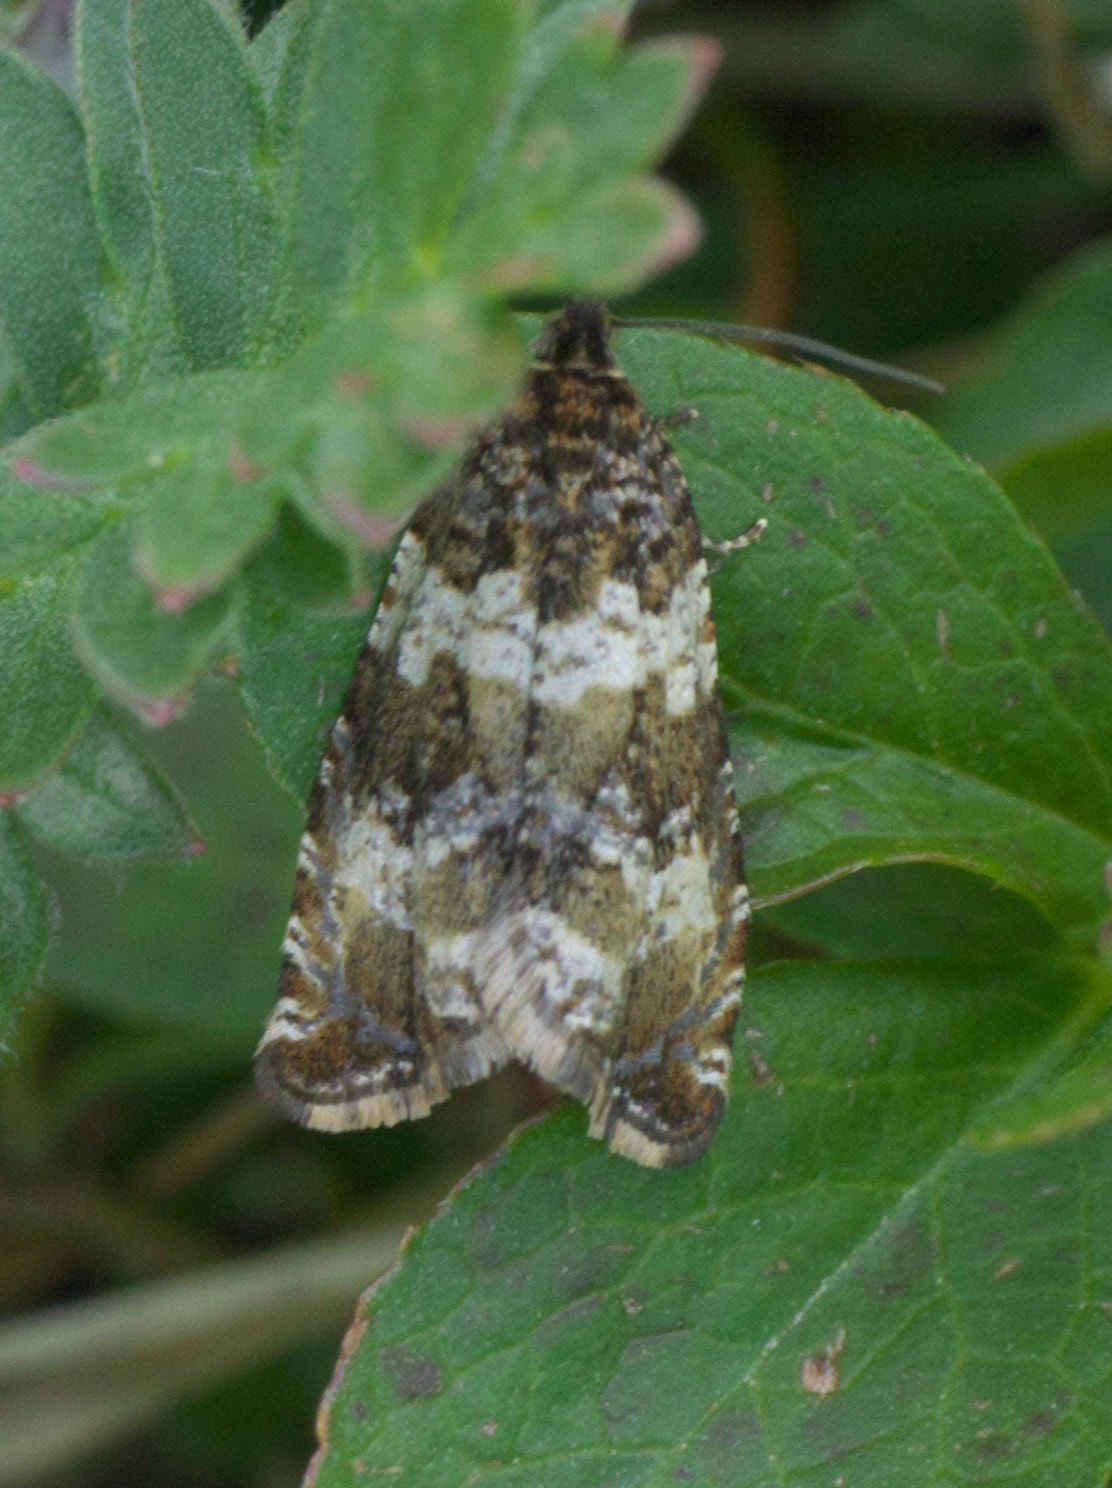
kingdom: Animalia
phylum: Arthropoda
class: Insecta
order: Lepidoptera
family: Tortricidae
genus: Celypha
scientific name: Celypha cespitana
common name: Thyme marble
